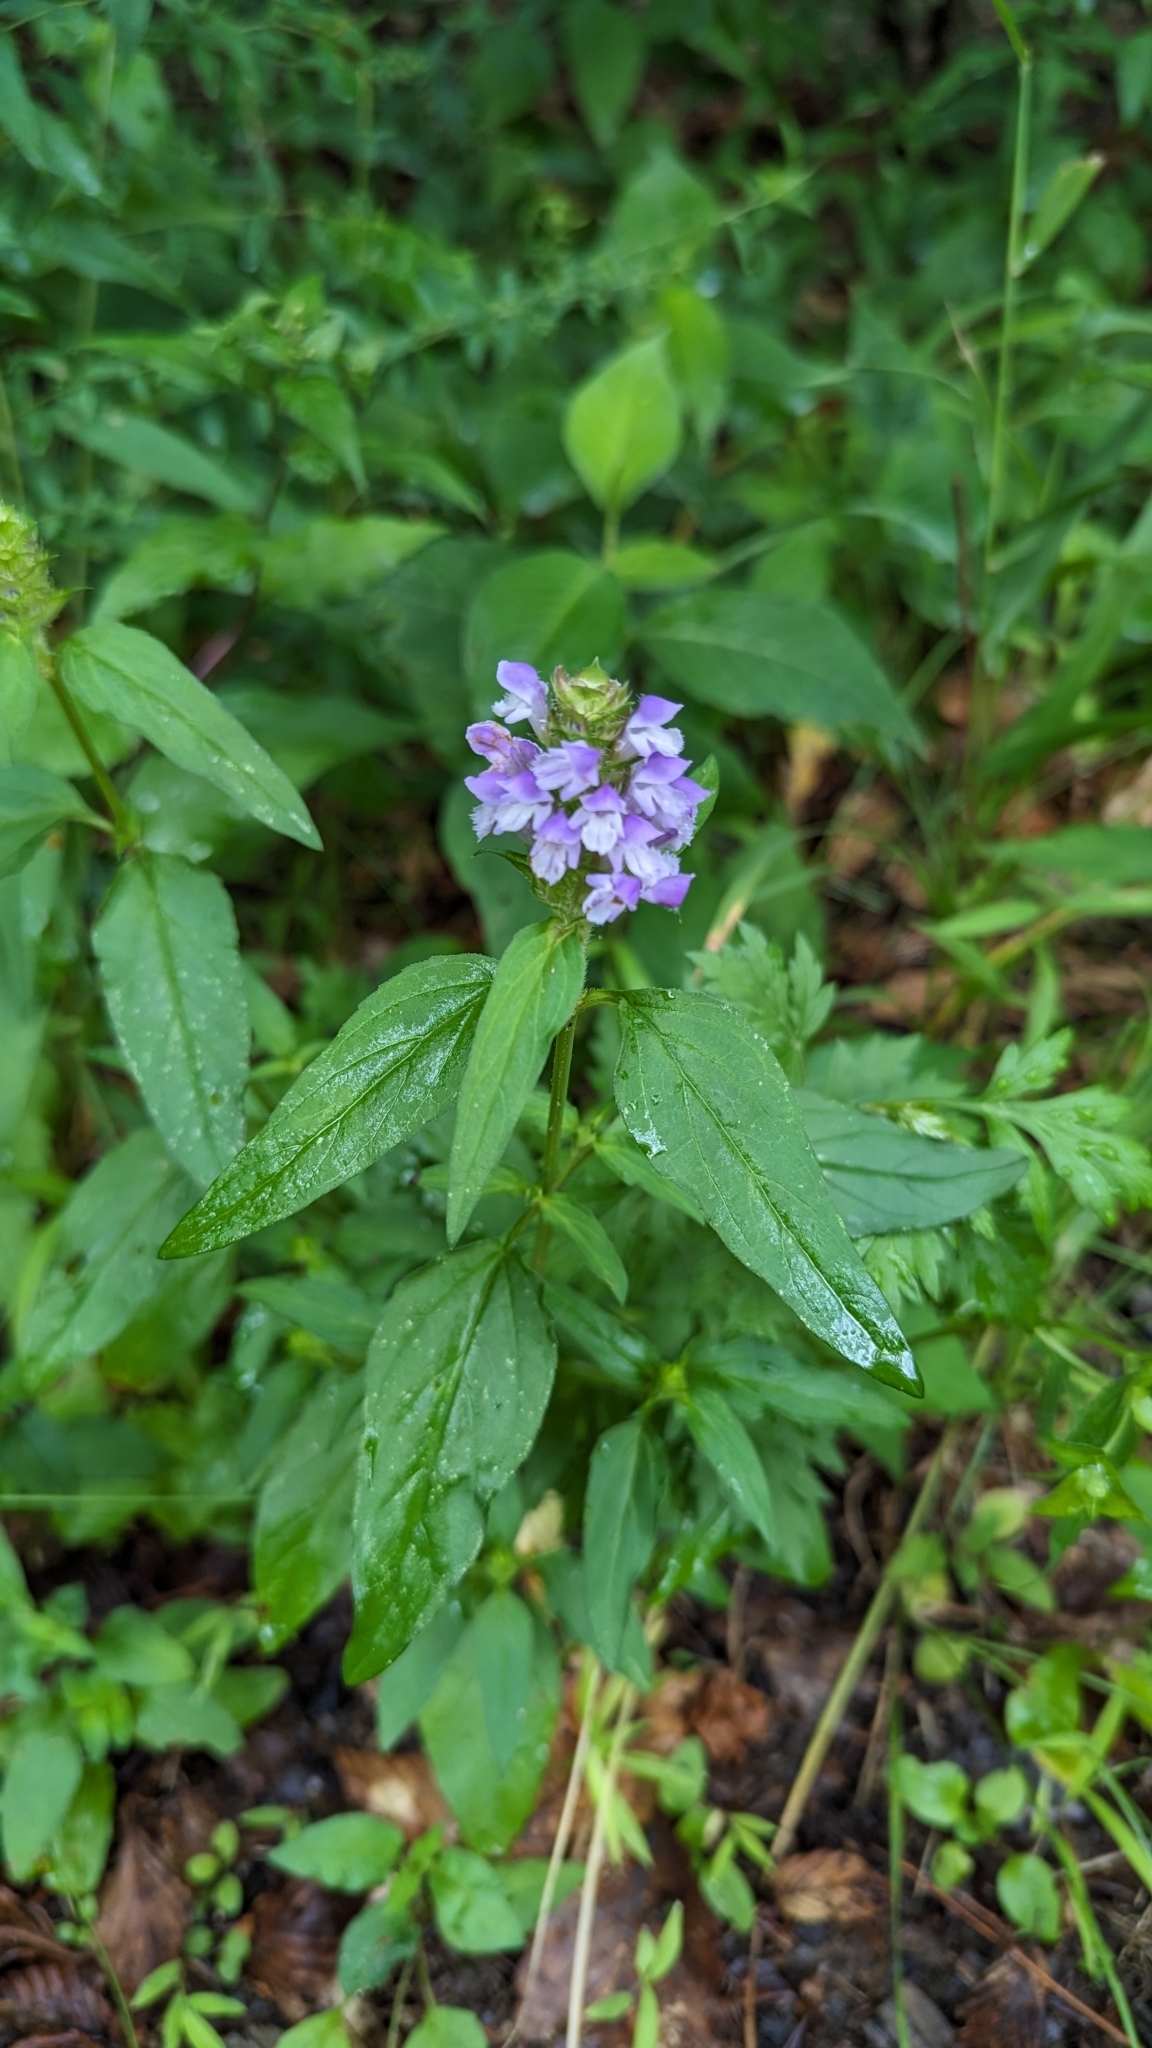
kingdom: Plantae
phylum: Tracheophyta
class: Magnoliopsida
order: Lamiales
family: Lamiaceae
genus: Prunella
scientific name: Prunella vulgaris
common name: Heal-all
